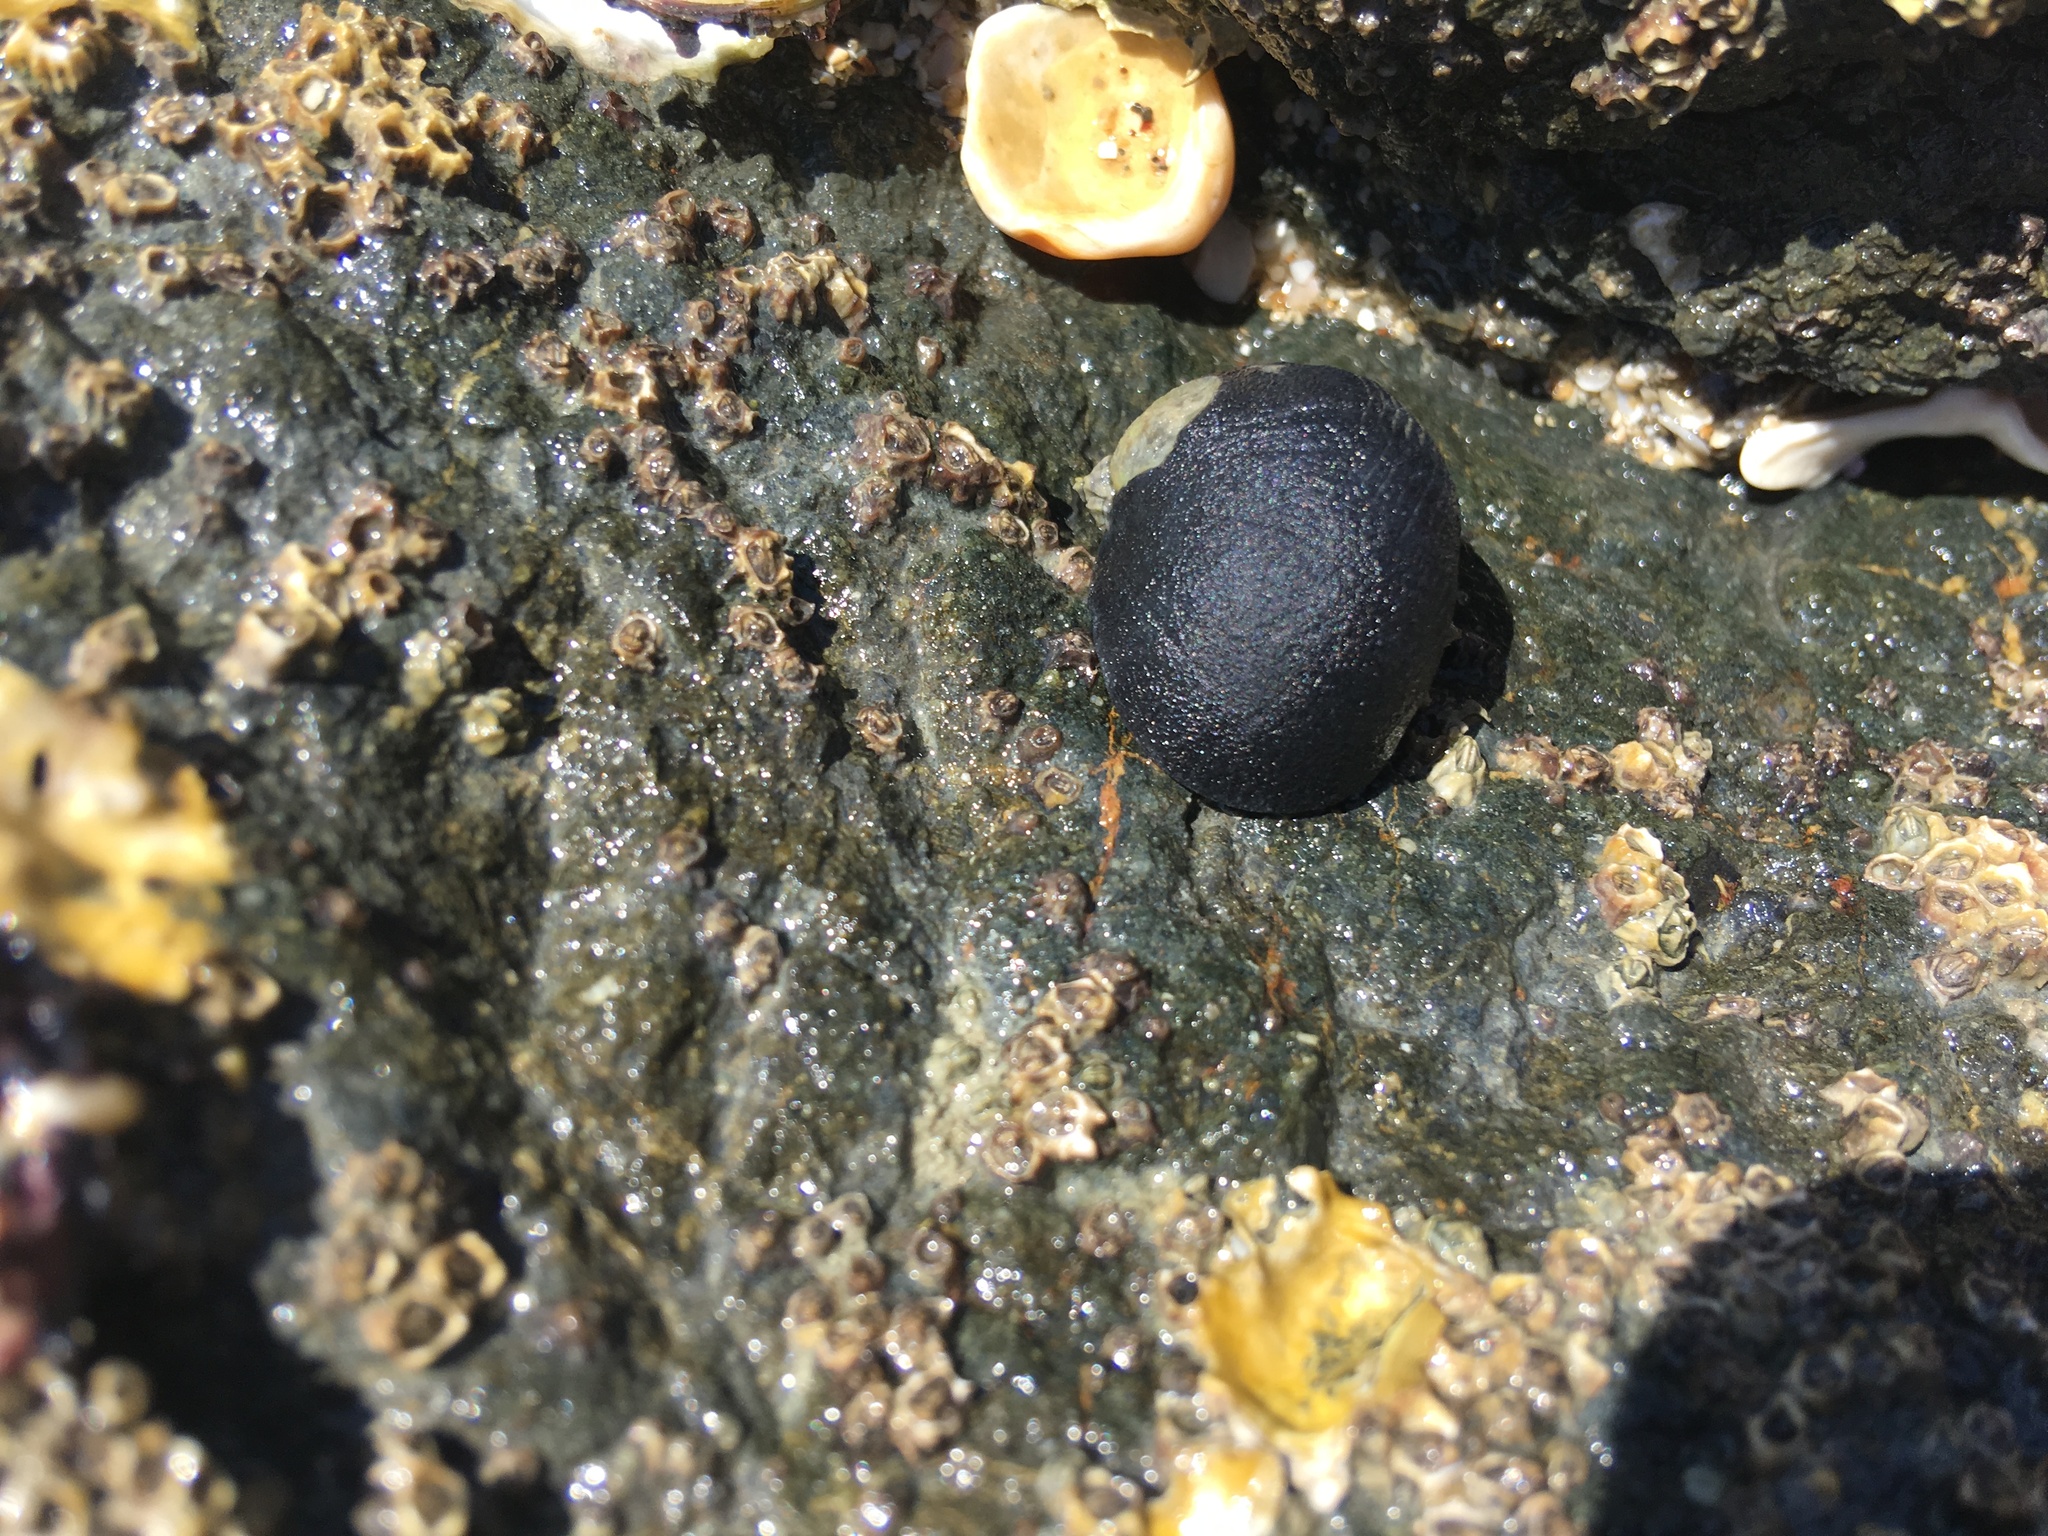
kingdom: Animalia
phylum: Mollusca
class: Gastropoda
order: Cycloneritida
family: Neritidae
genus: Nerita
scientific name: Nerita melanotragus
